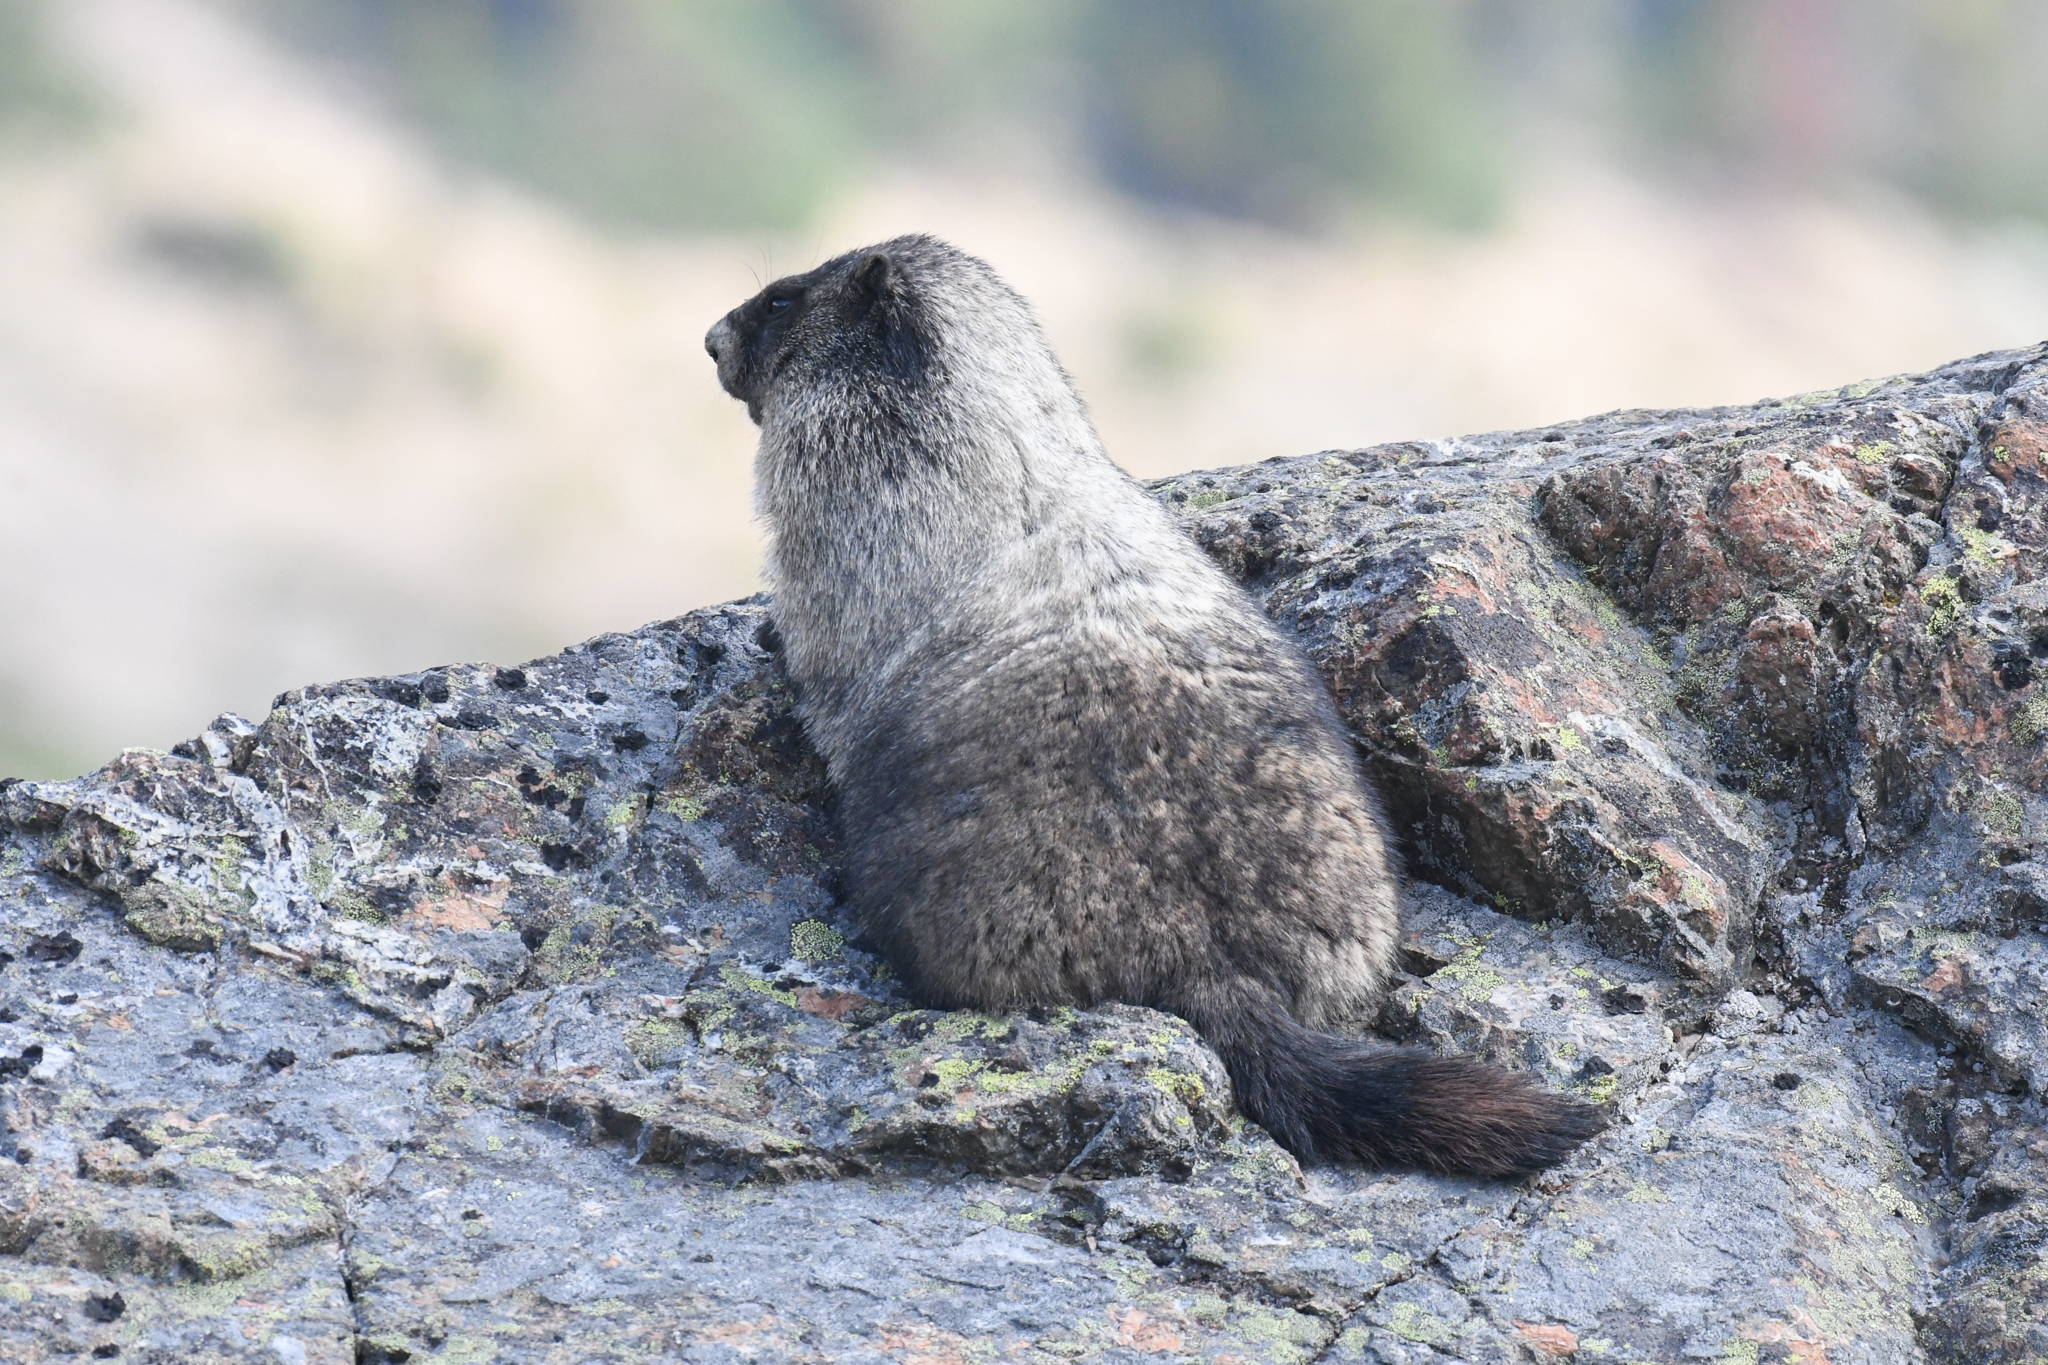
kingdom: Animalia
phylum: Chordata
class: Mammalia
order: Rodentia
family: Sciuridae
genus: Marmota
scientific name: Marmota caligata
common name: Hoary marmot
